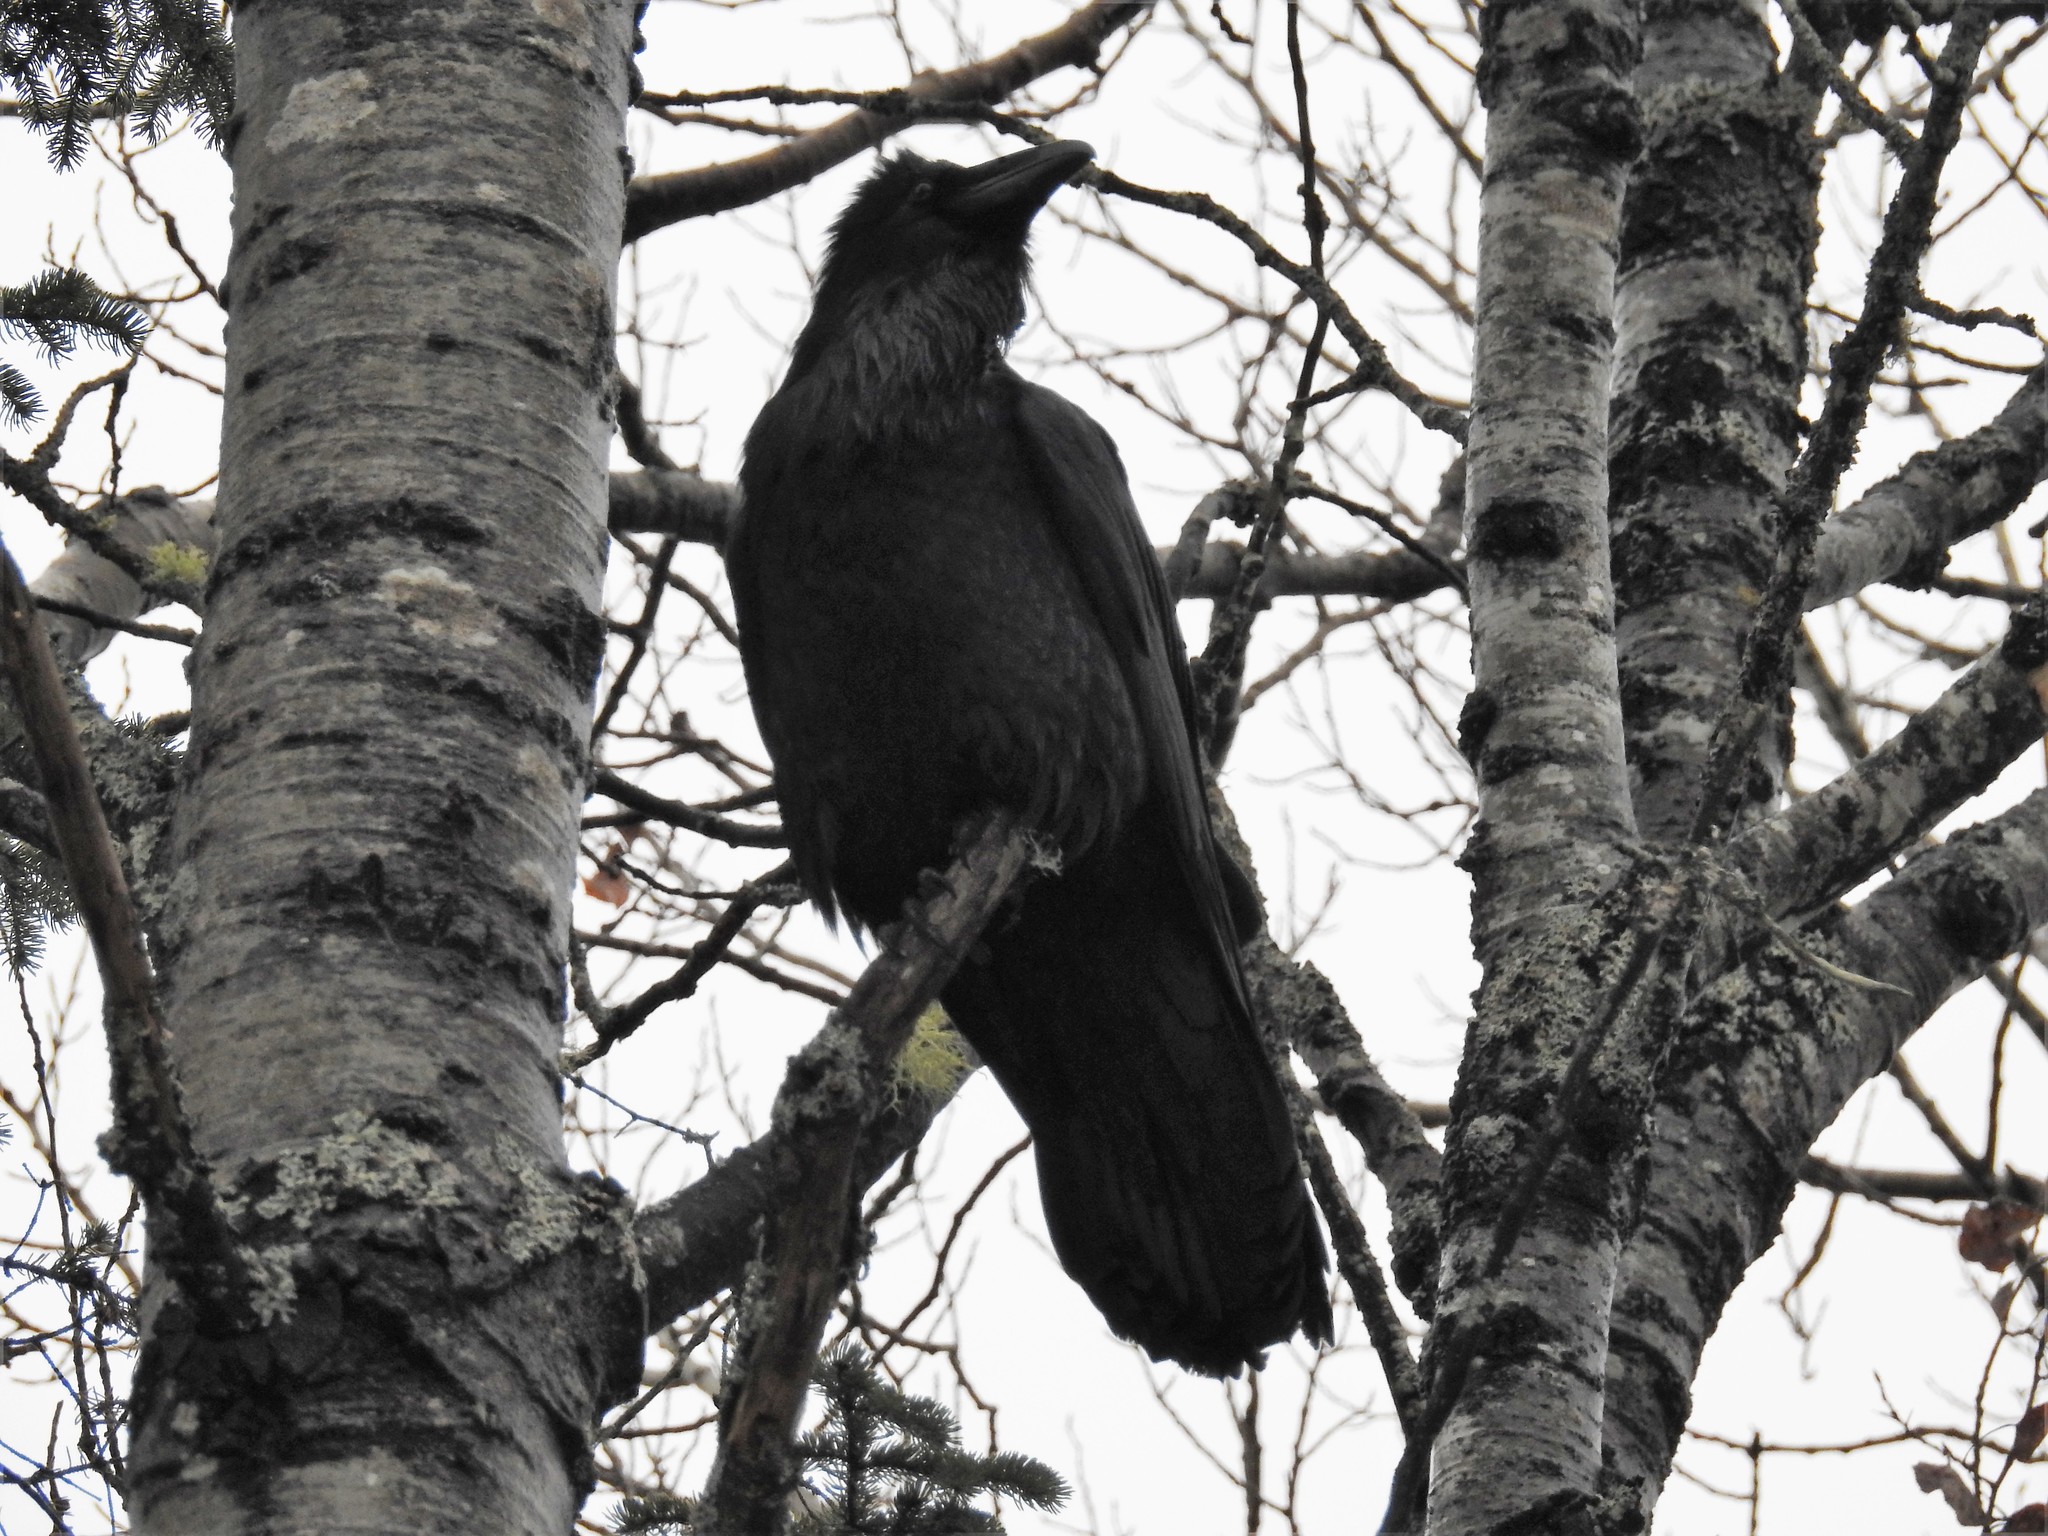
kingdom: Animalia
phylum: Chordata
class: Aves
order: Passeriformes
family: Corvidae
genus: Corvus
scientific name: Corvus corax
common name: Common raven
